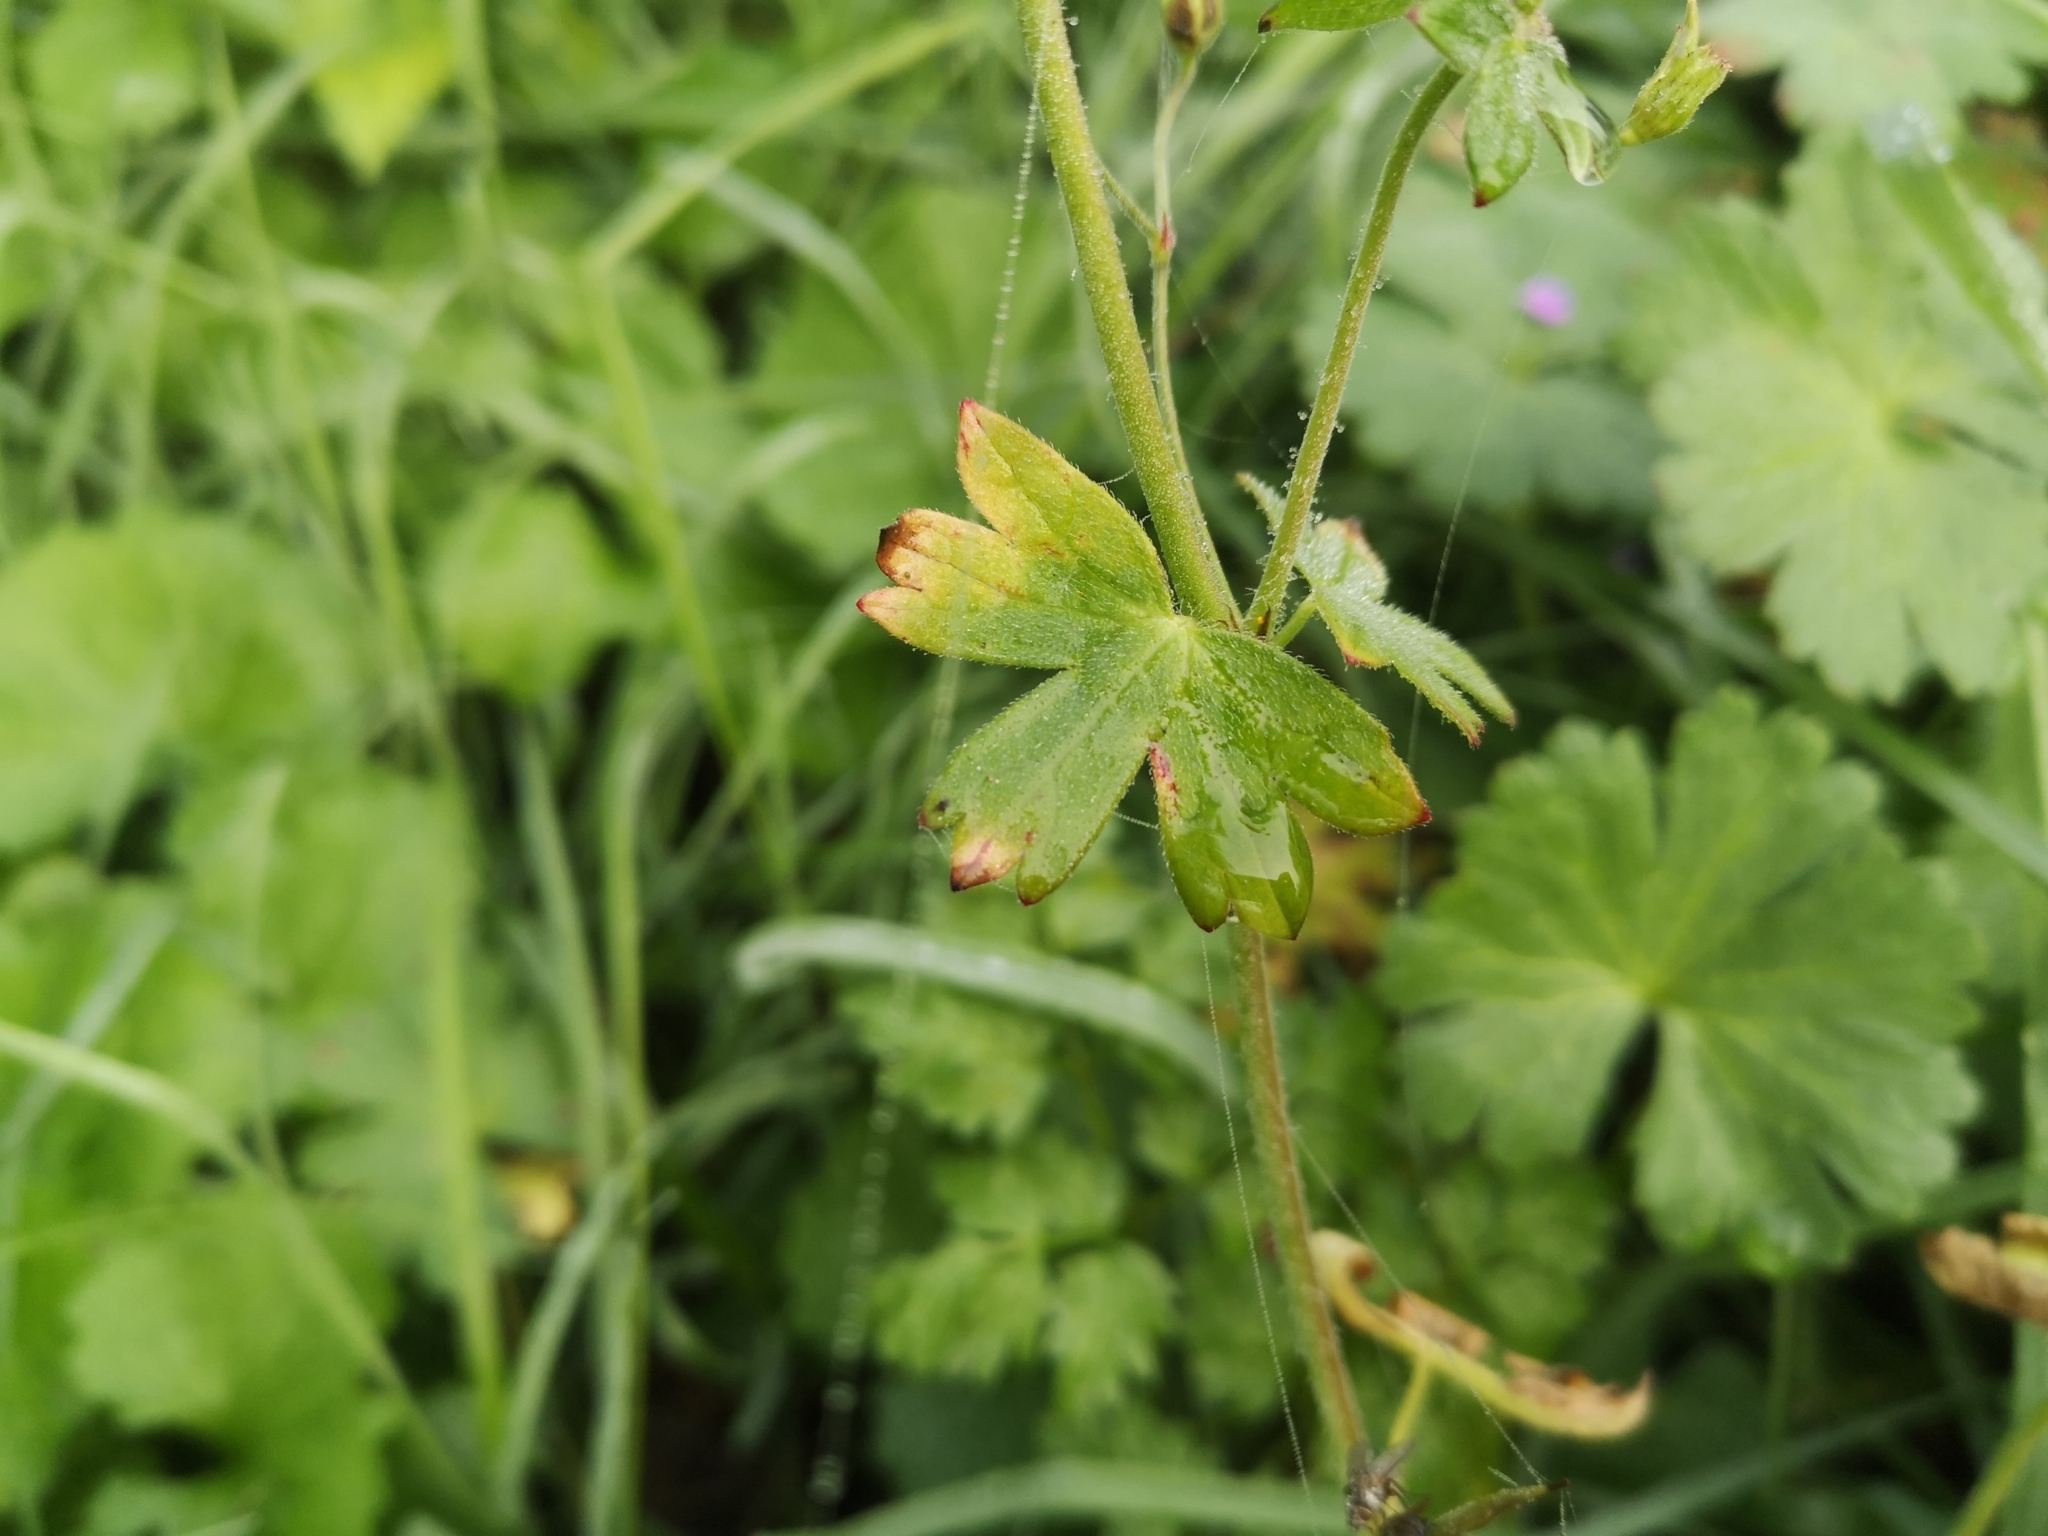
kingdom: Plantae
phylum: Tracheophyta
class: Magnoliopsida
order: Geraniales
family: Geraniaceae
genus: Geranium
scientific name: Geranium pyrenaicum
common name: Hedgerow crane's-bill
